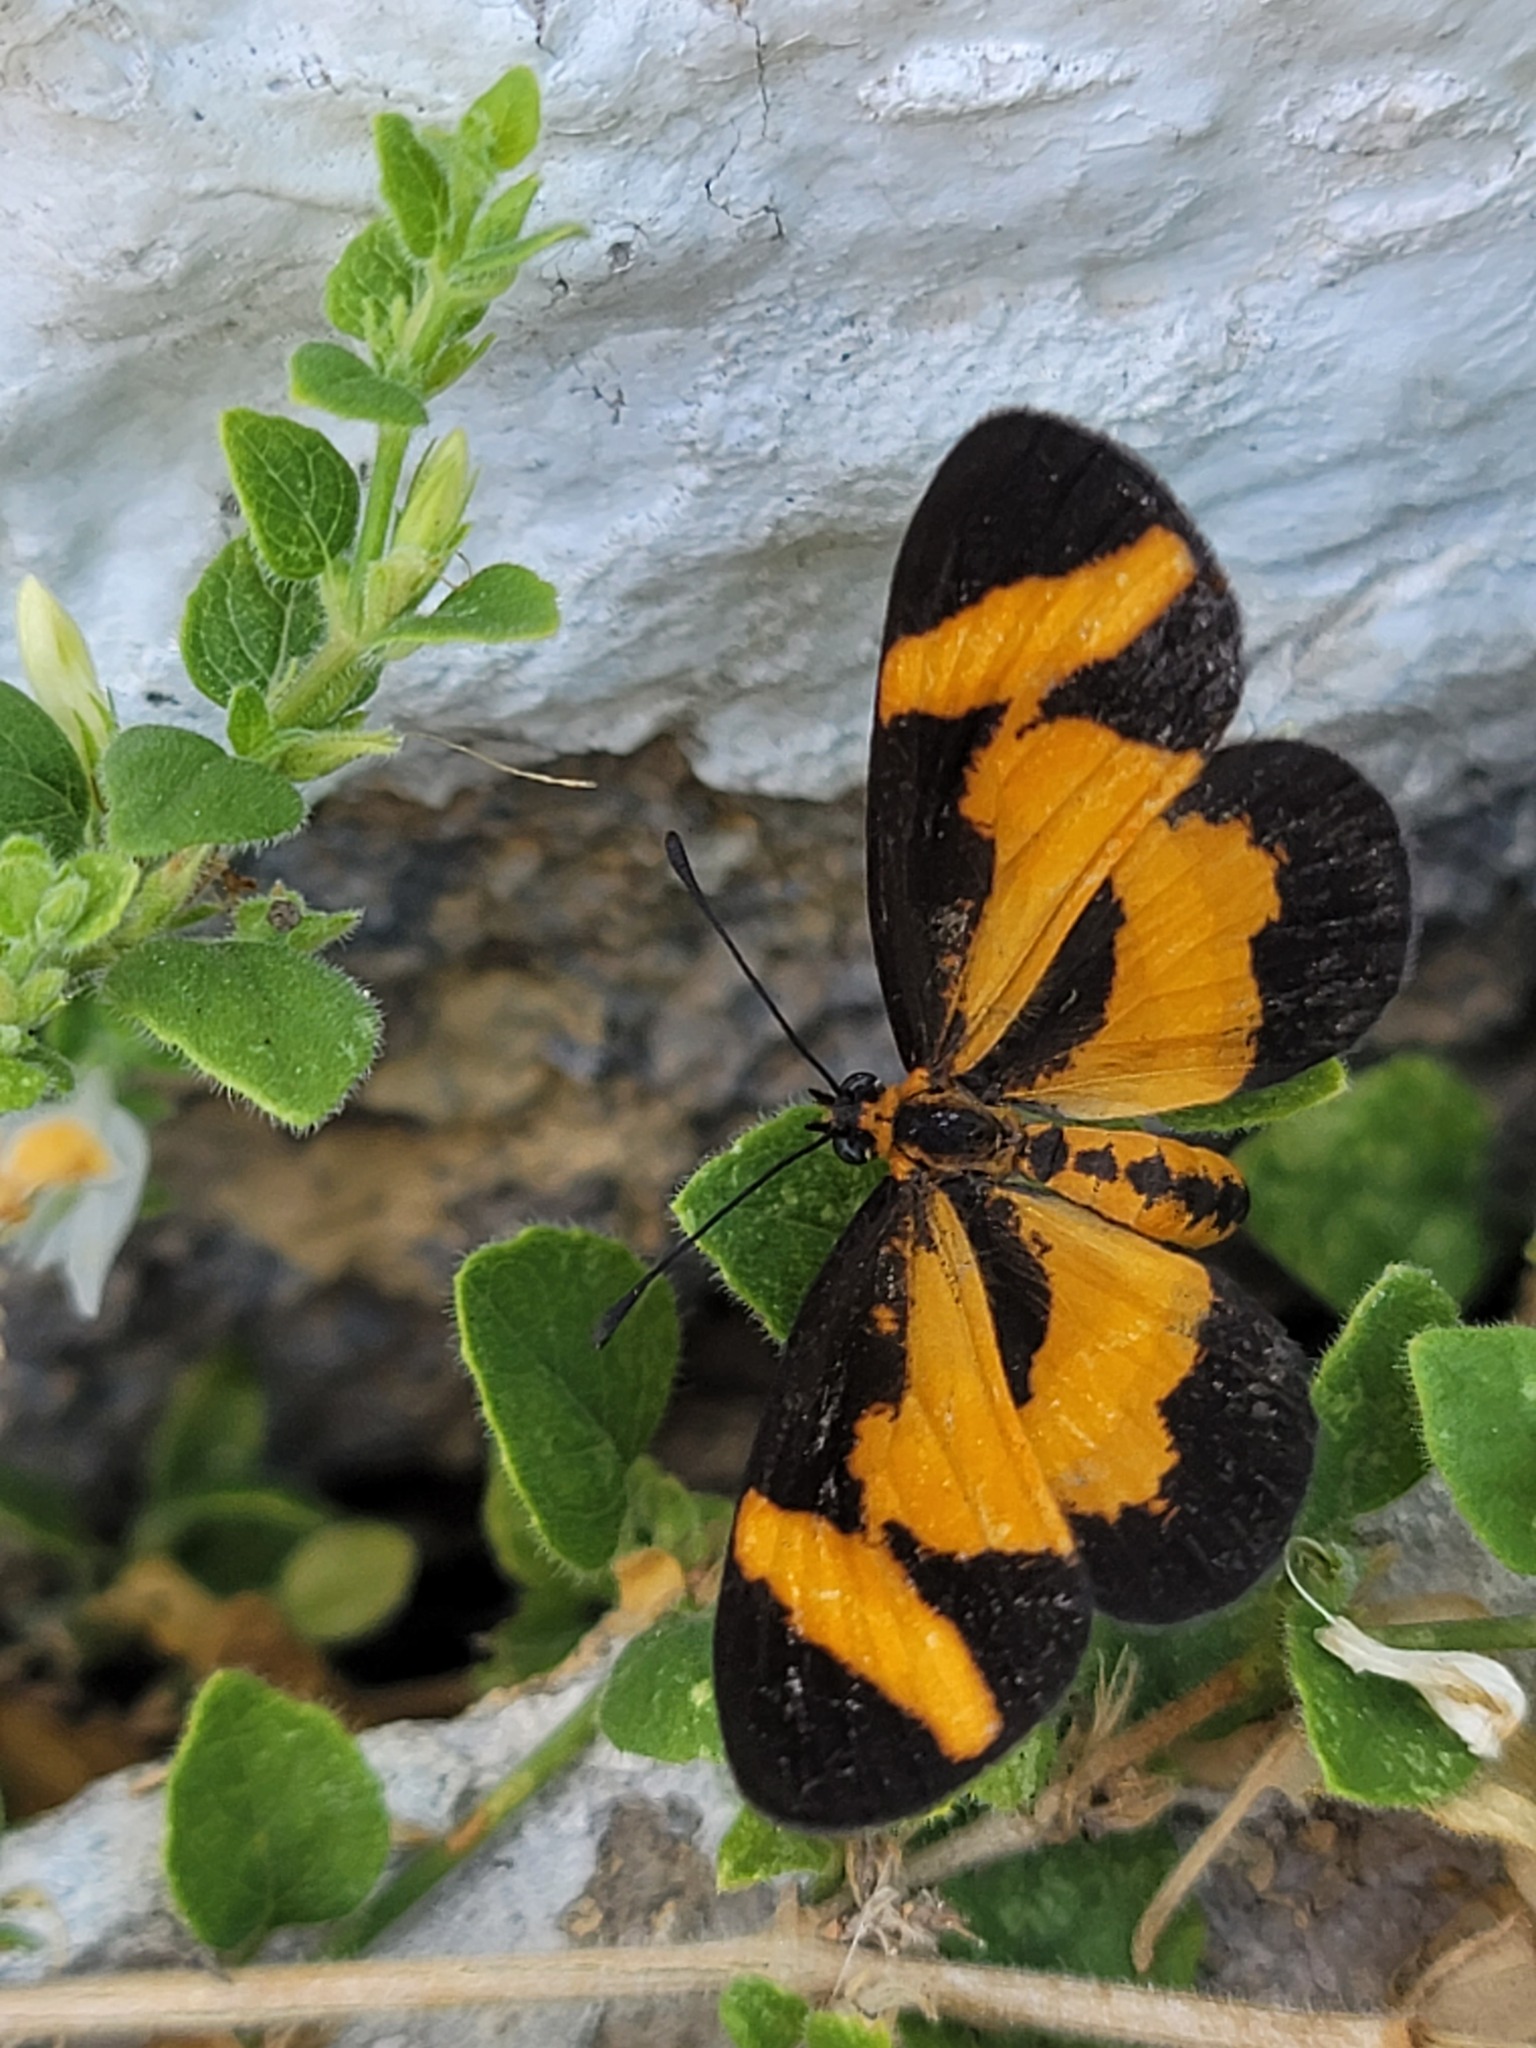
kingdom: Animalia
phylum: Arthropoda
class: Insecta
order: Lepidoptera
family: Nymphalidae
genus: Microtia
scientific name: Microtia elva
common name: Elf
